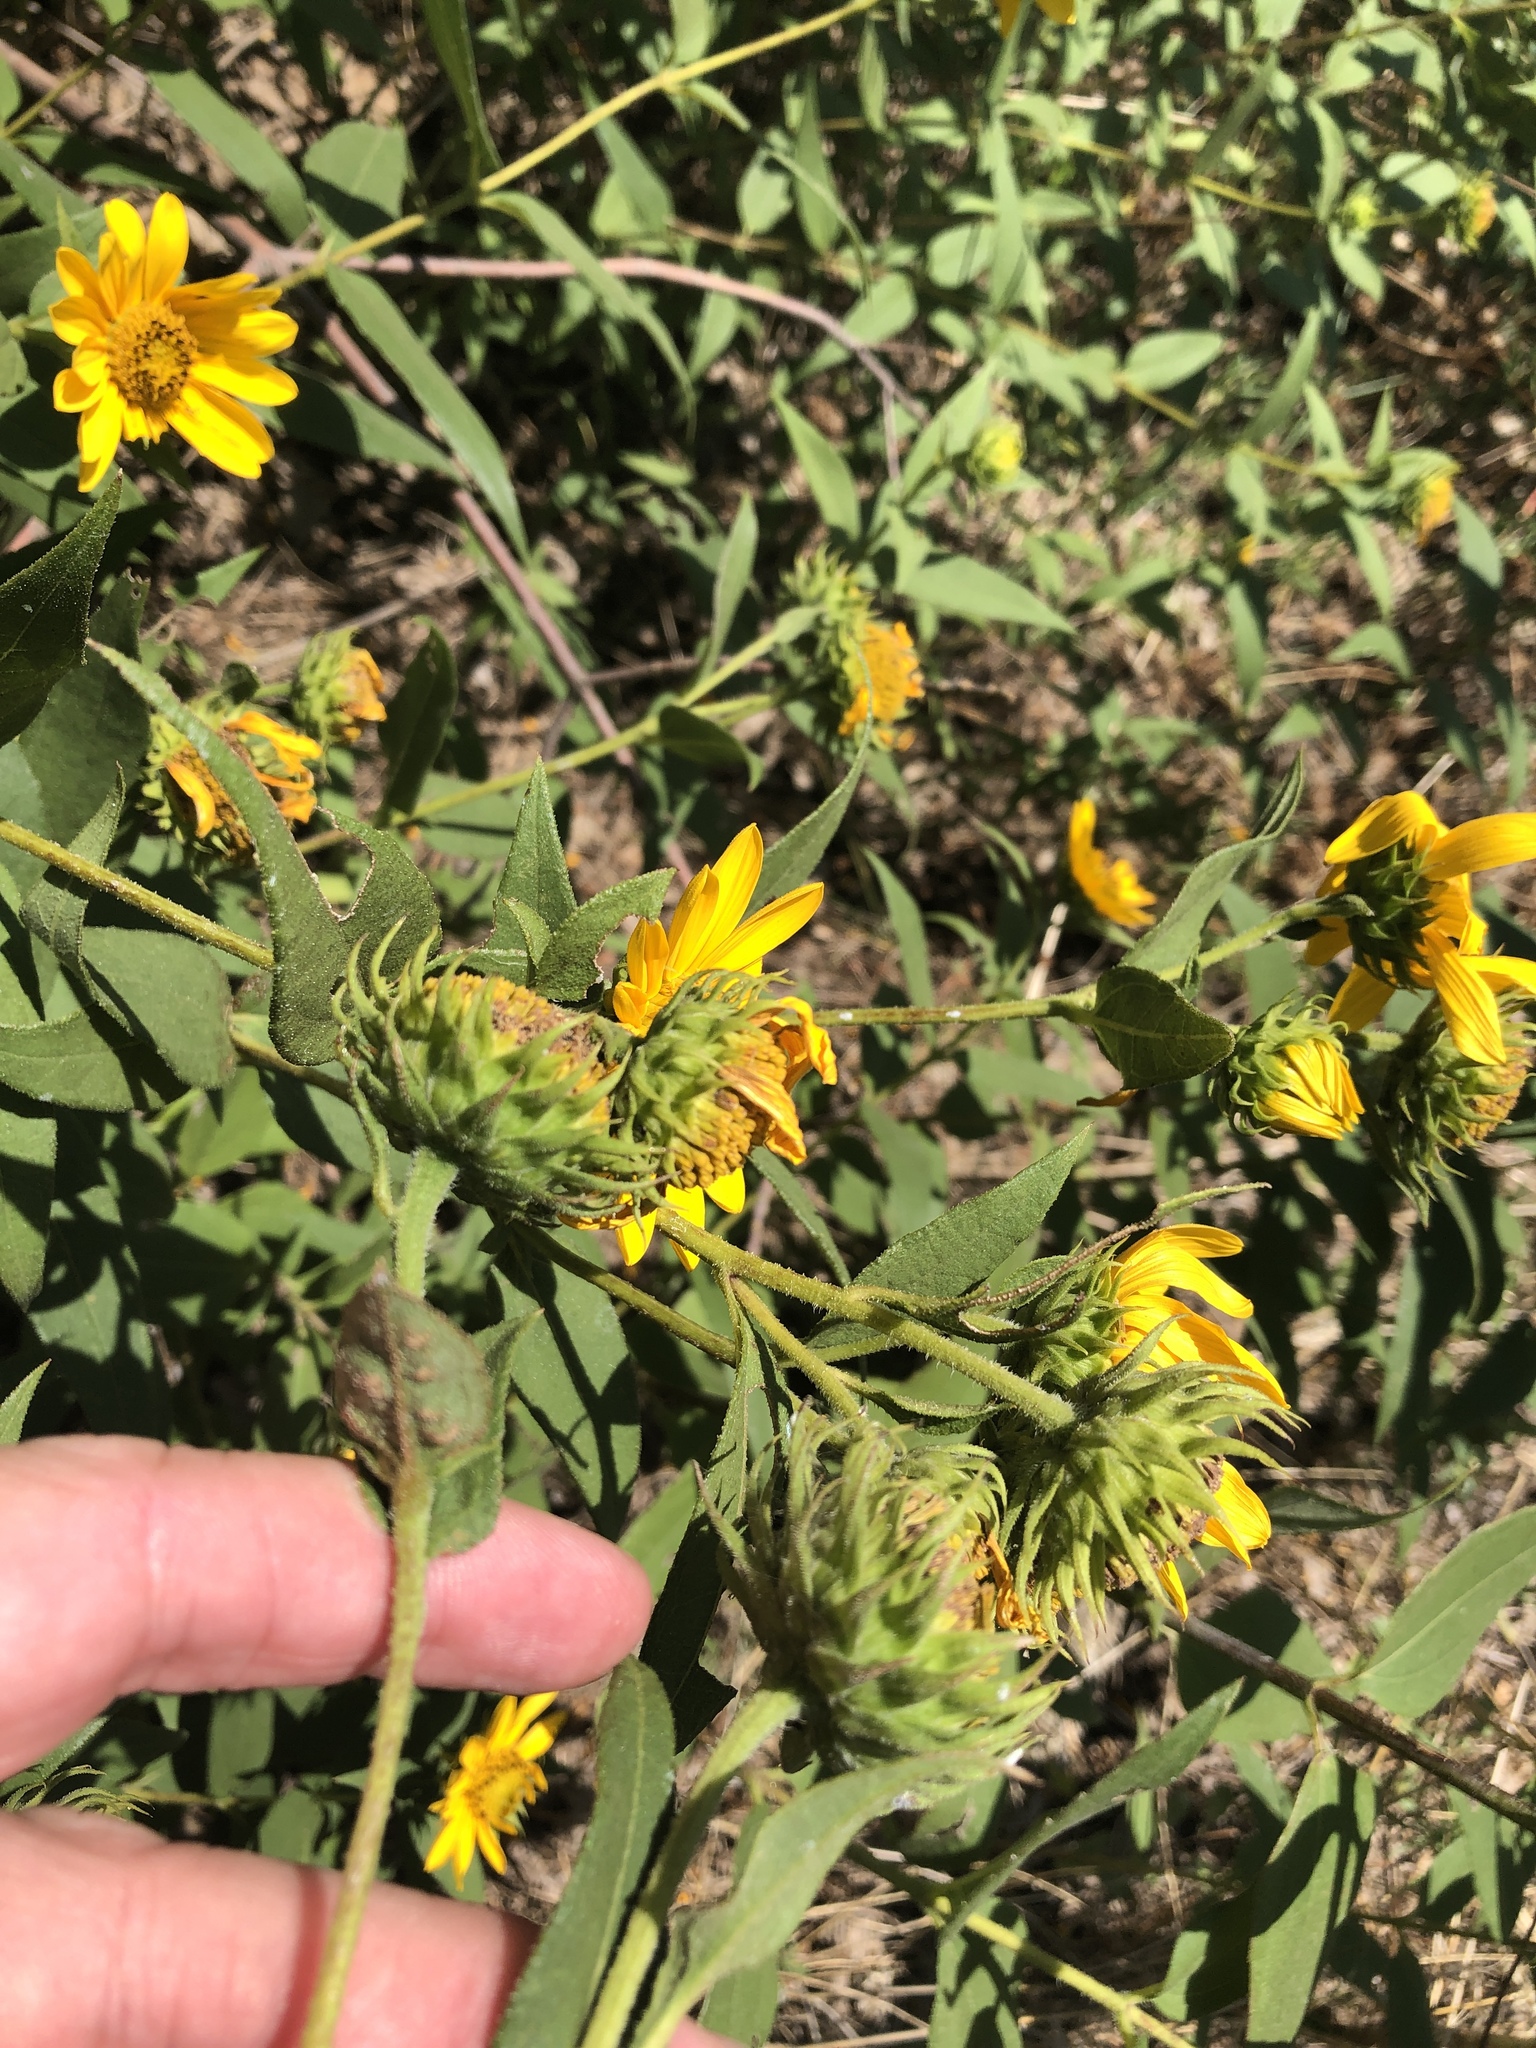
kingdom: Plantae
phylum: Tracheophyta
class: Magnoliopsida
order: Asterales
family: Asteraceae
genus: Helianthus
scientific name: Helianthus hirsutus
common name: Hairy sunflower
